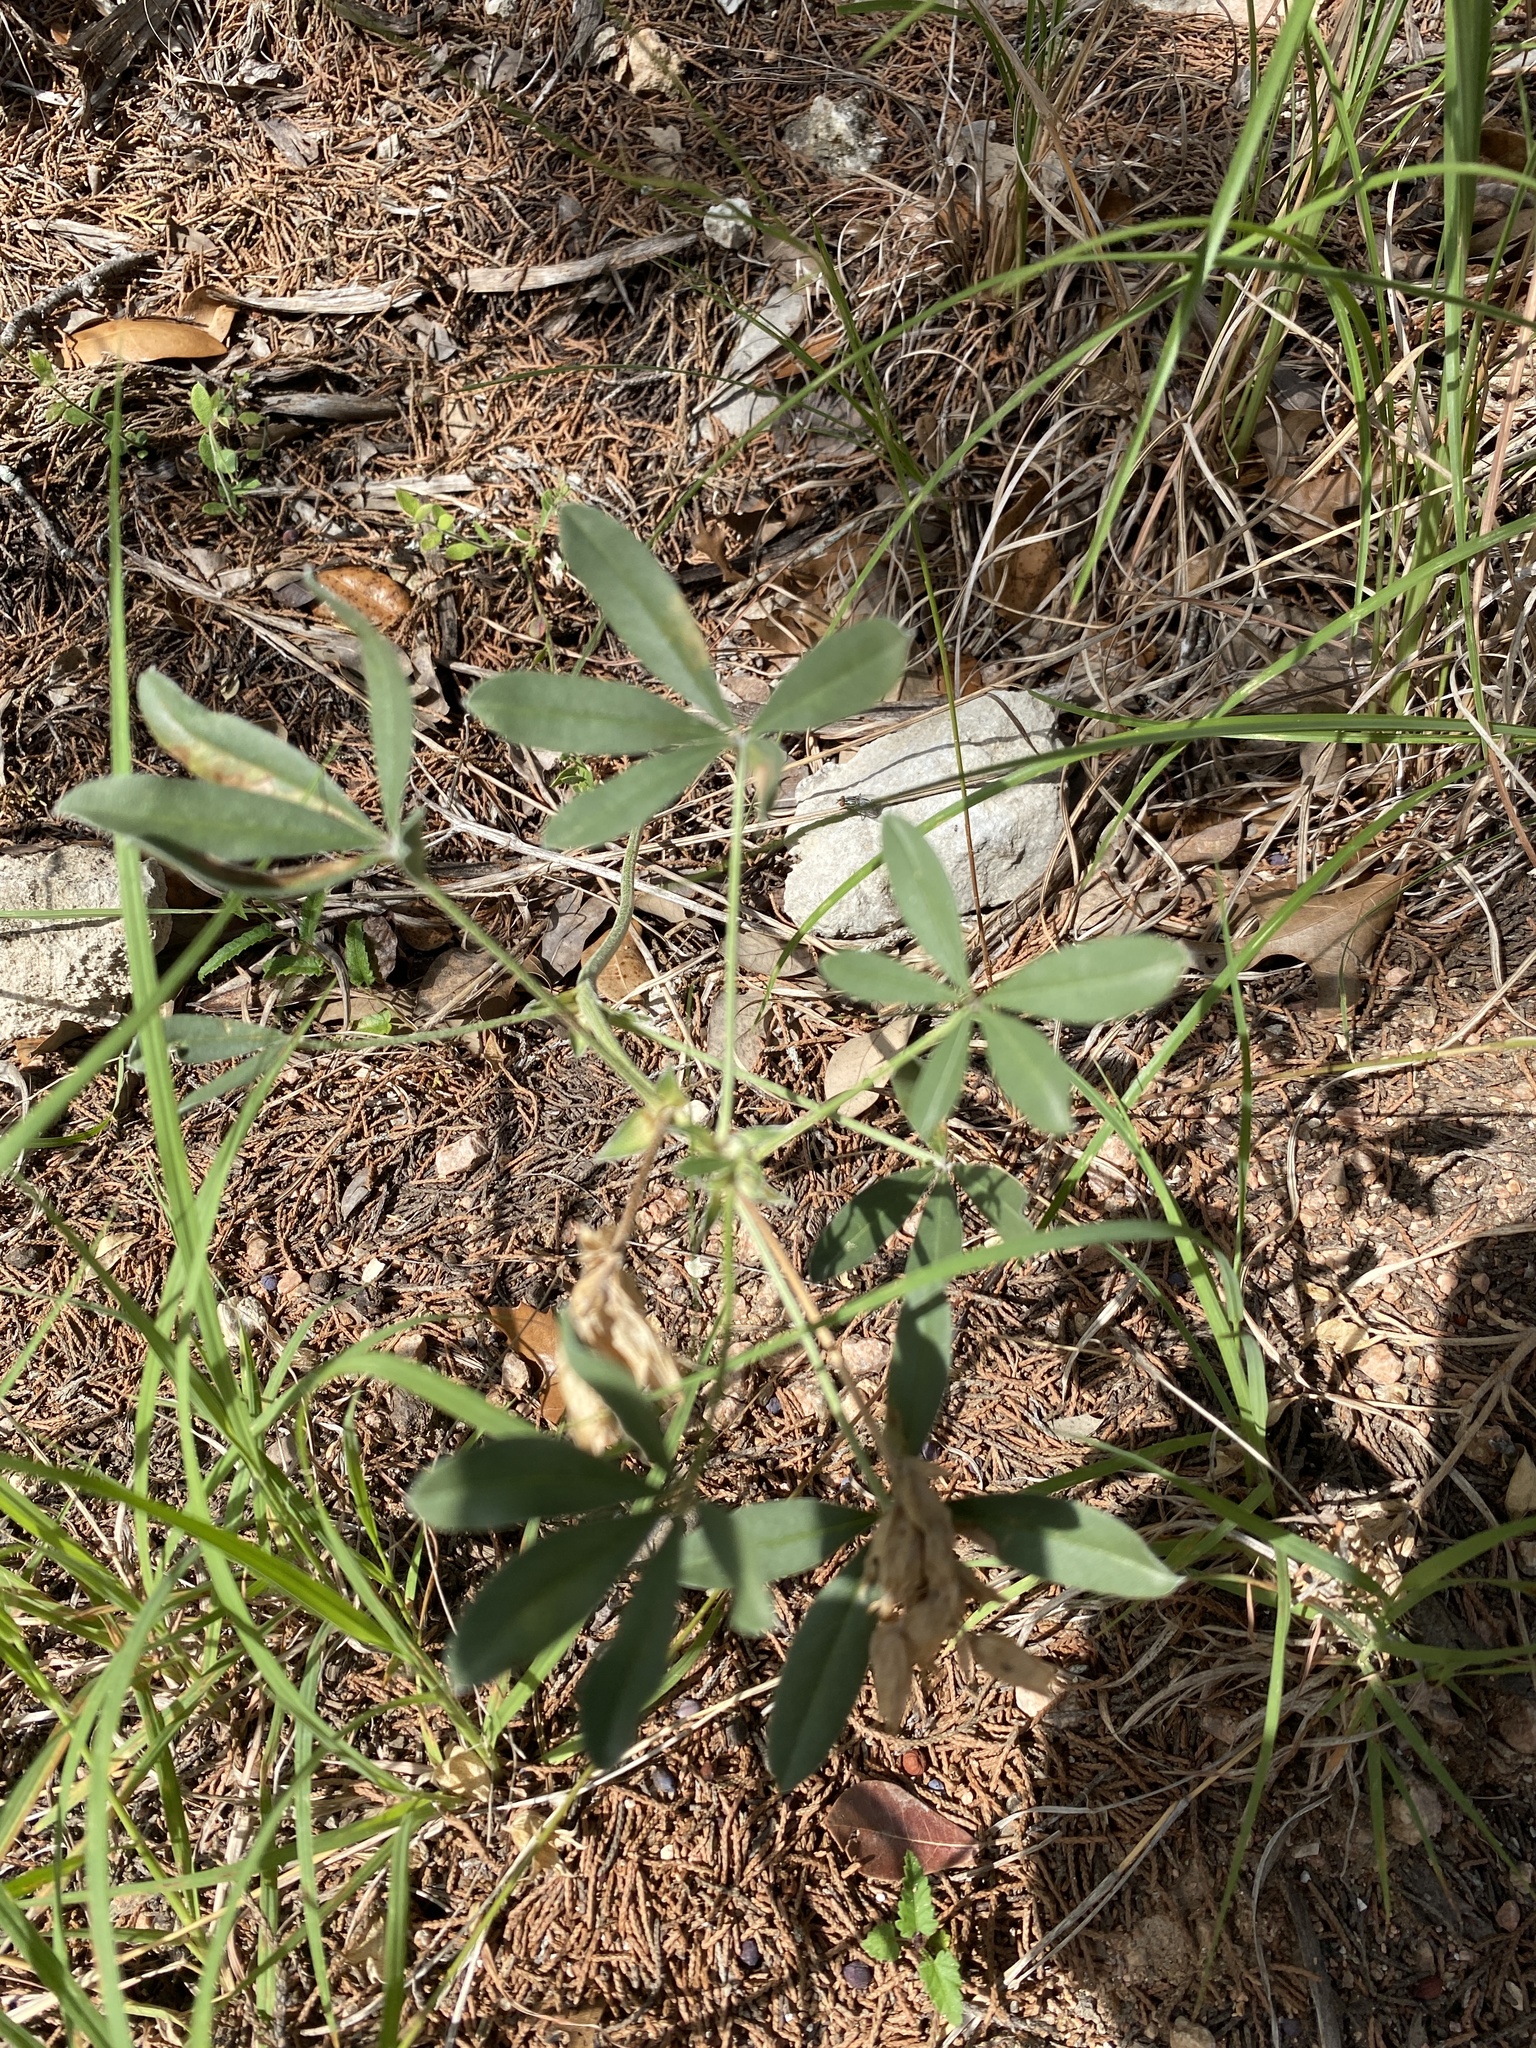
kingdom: Plantae
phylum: Tracheophyta
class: Magnoliopsida
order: Fabales
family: Fabaceae
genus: Pediomelum
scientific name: Pediomelum latestipulatum
